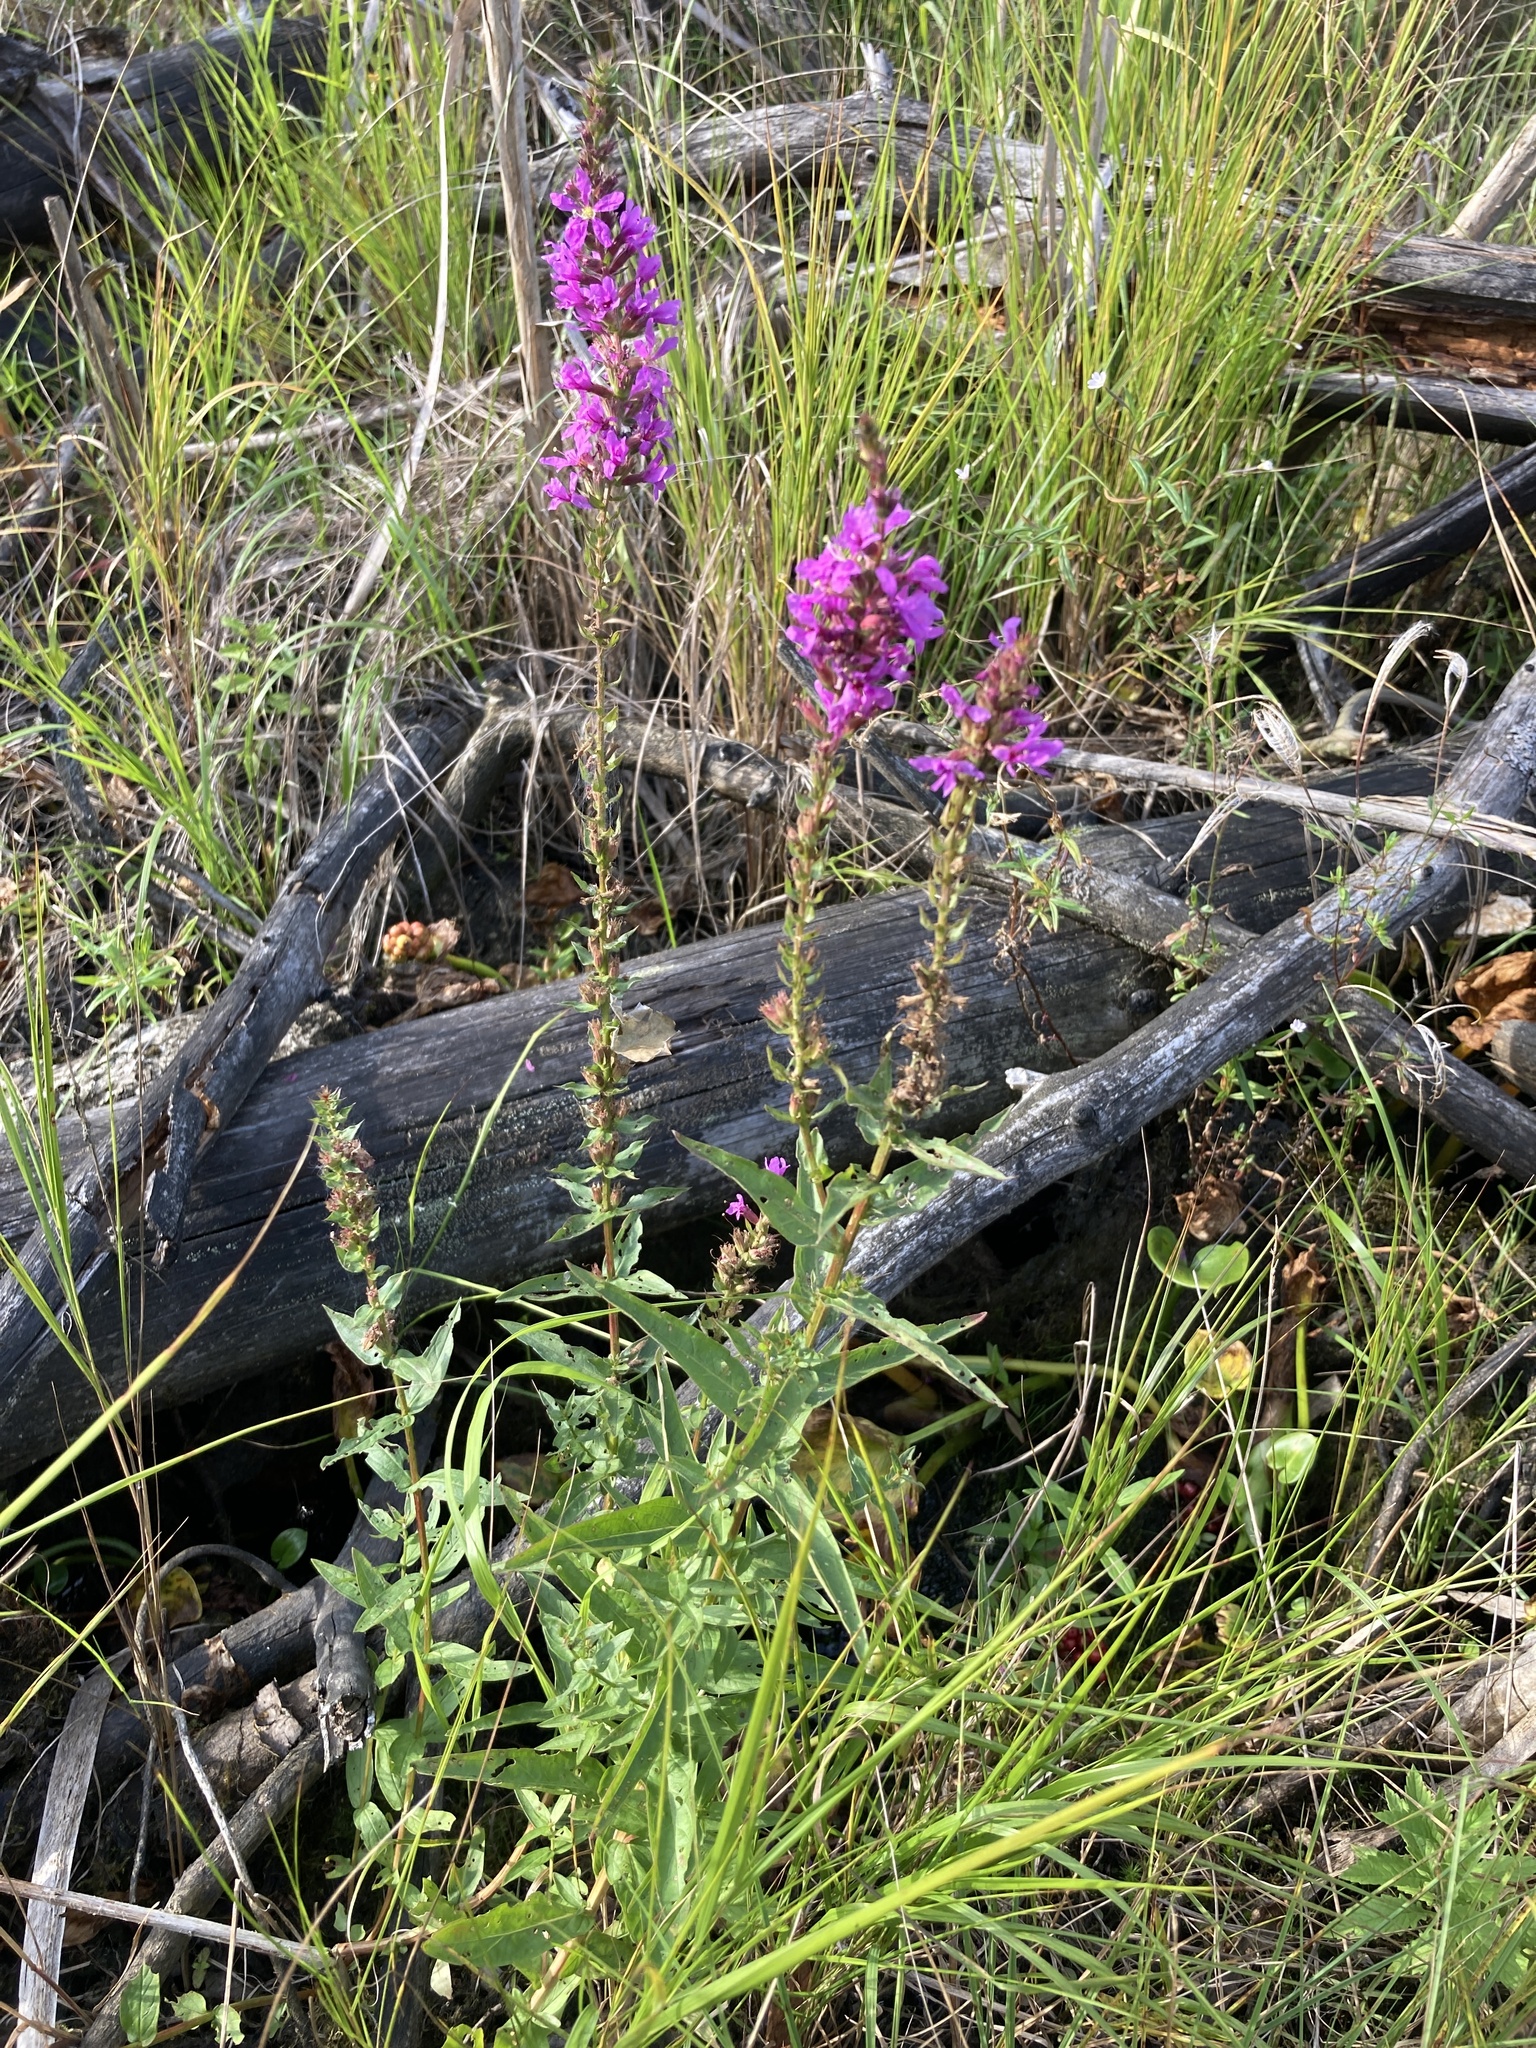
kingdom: Plantae
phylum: Tracheophyta
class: Magnoliopsida
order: Myrtales
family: Lythraceae
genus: Lythrum
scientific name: Lythrum salicaria
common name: Purple loosestrife
